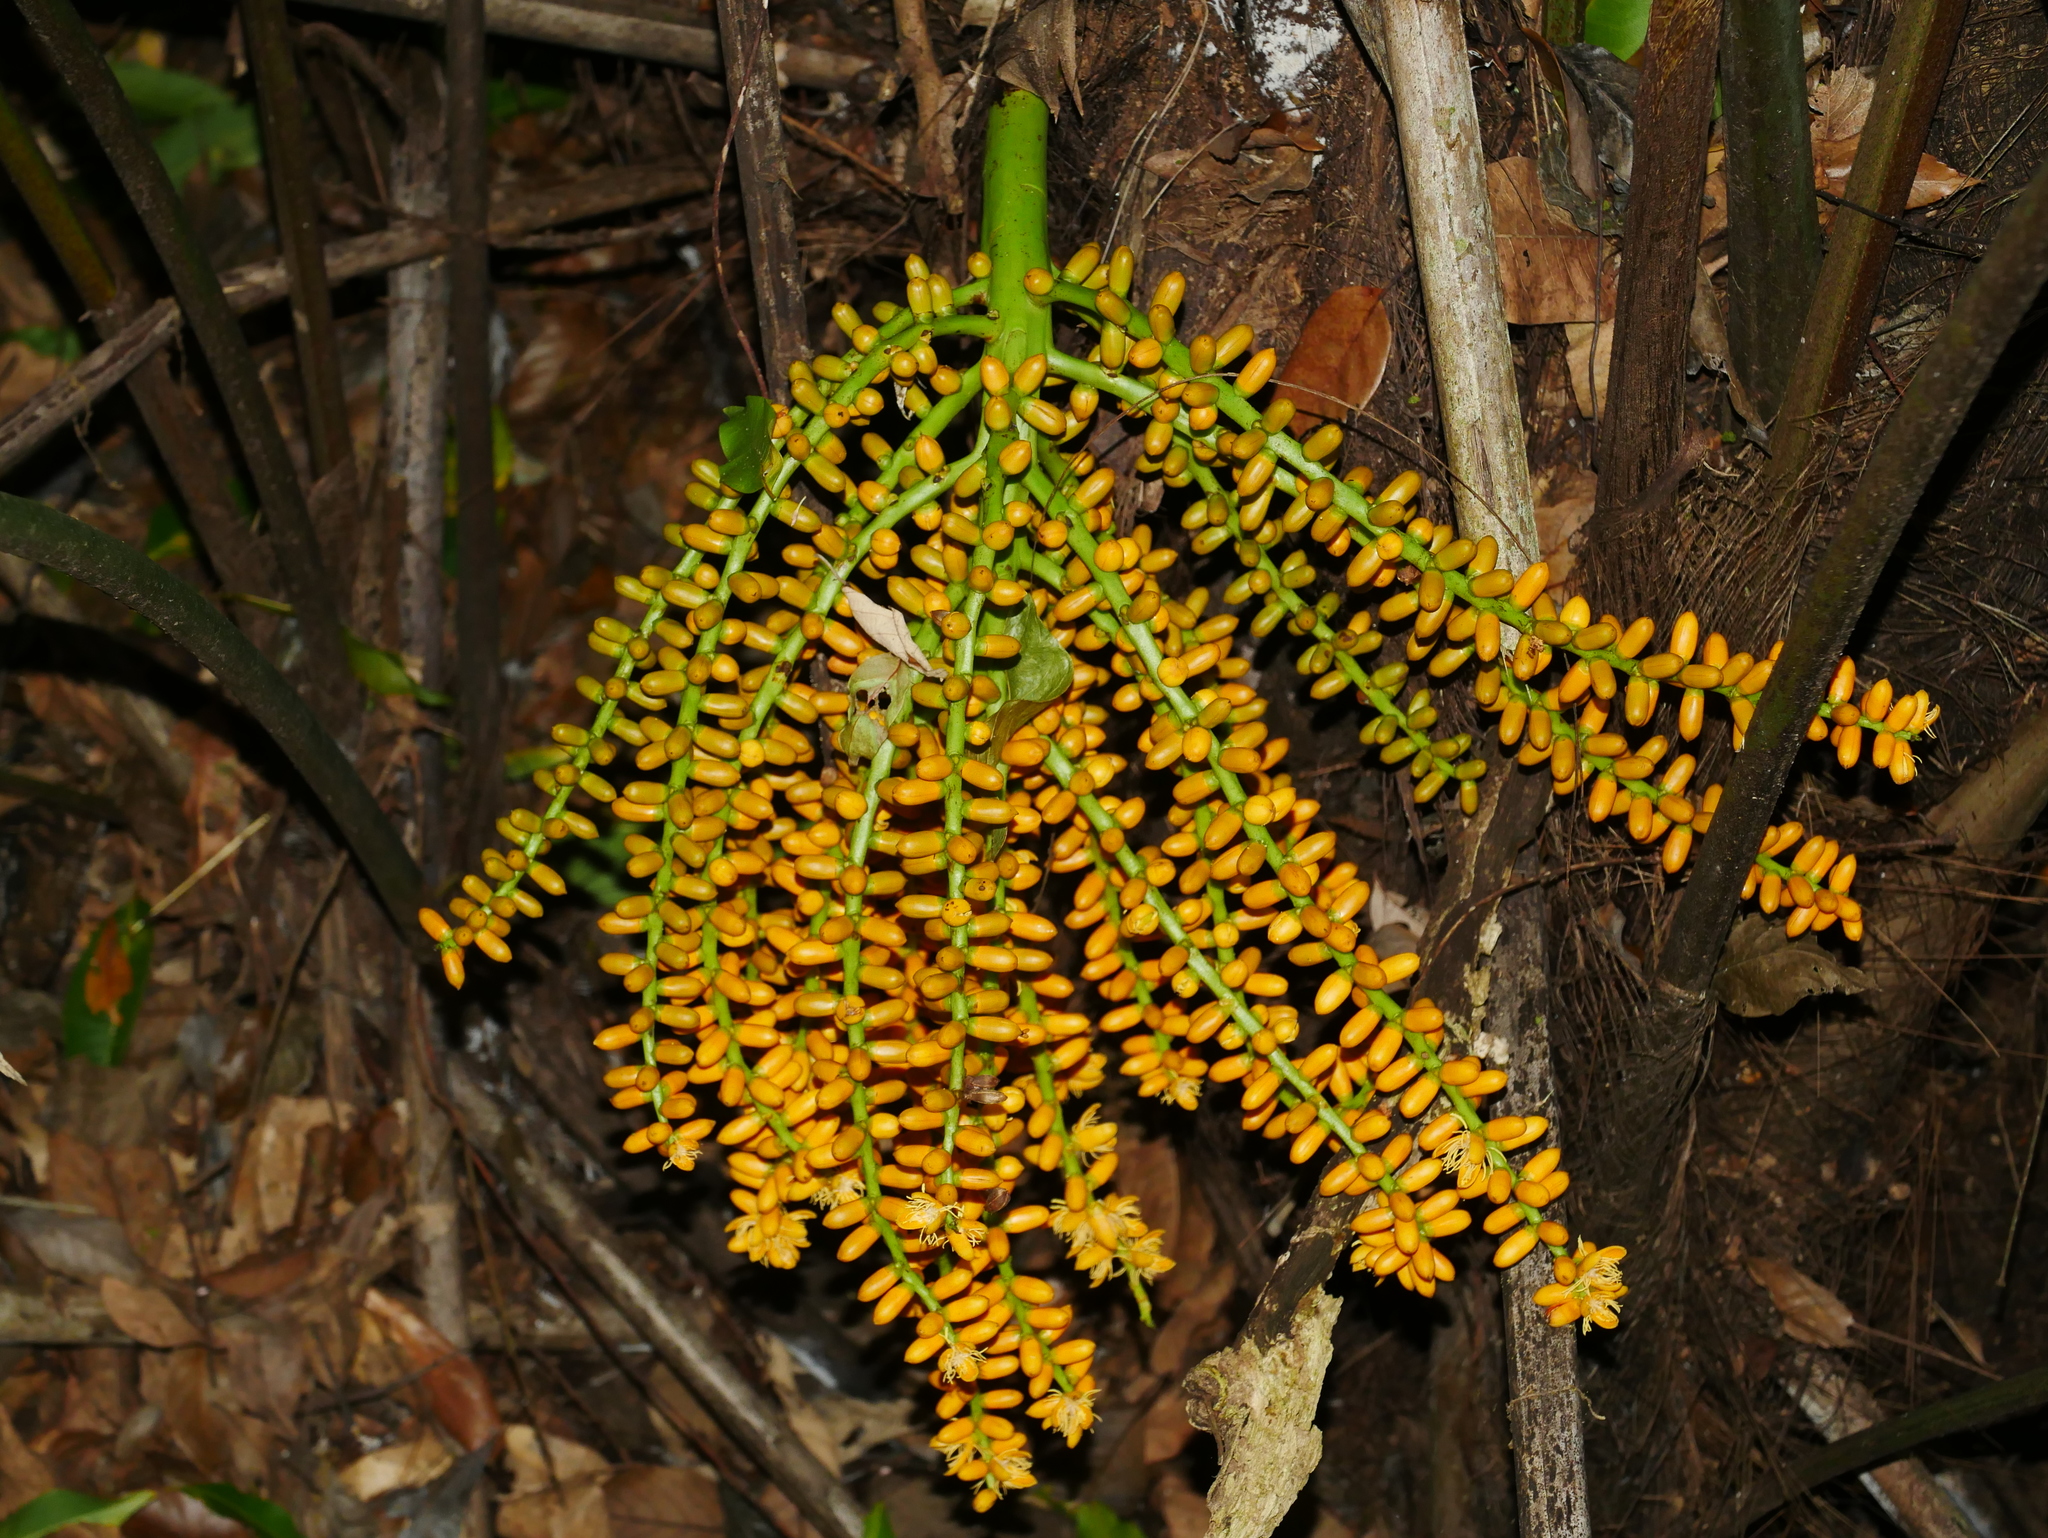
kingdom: Plantae
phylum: Tracheophyta
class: Liliopsida
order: Arecales
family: Arecaceae
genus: Arenga
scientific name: Arenga engleri
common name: Formosan sugar palm
